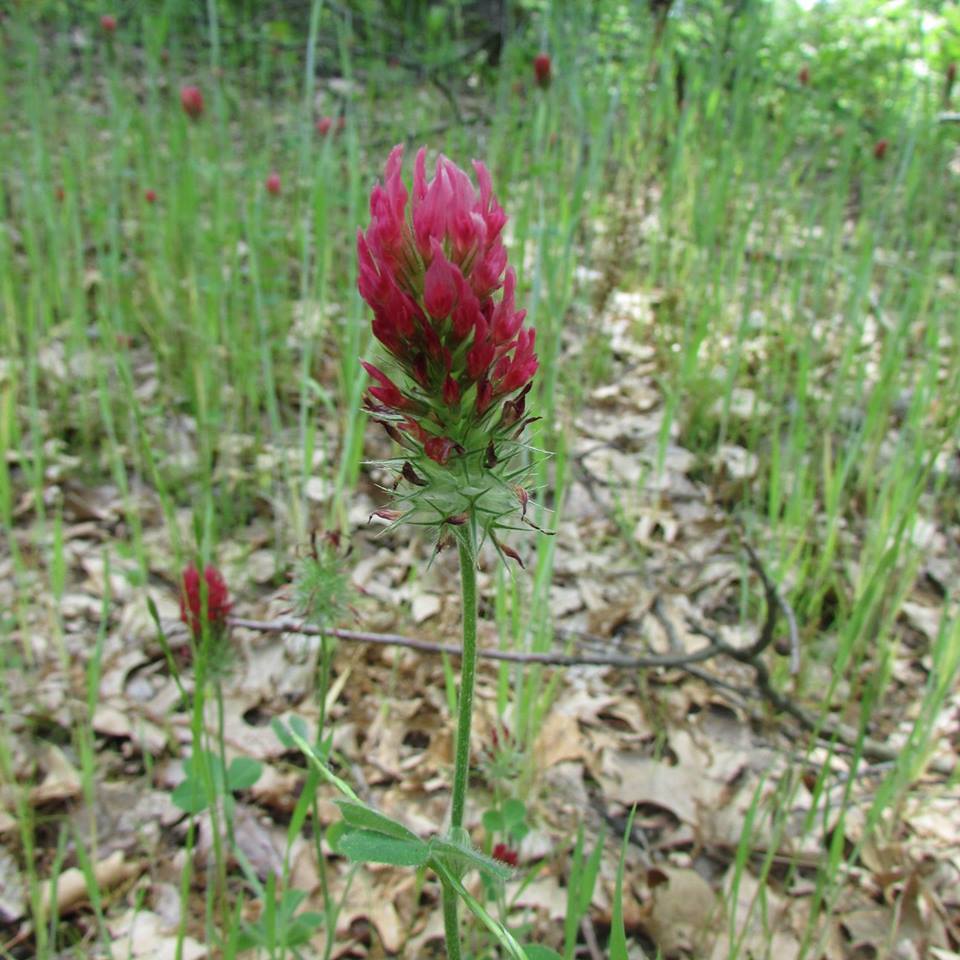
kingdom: Plantae
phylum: Tracheophyta
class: Magnoliopsida
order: Fabales
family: Fabaceae
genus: Trifolium
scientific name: Trifolium incarnatum
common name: Crimson clover
